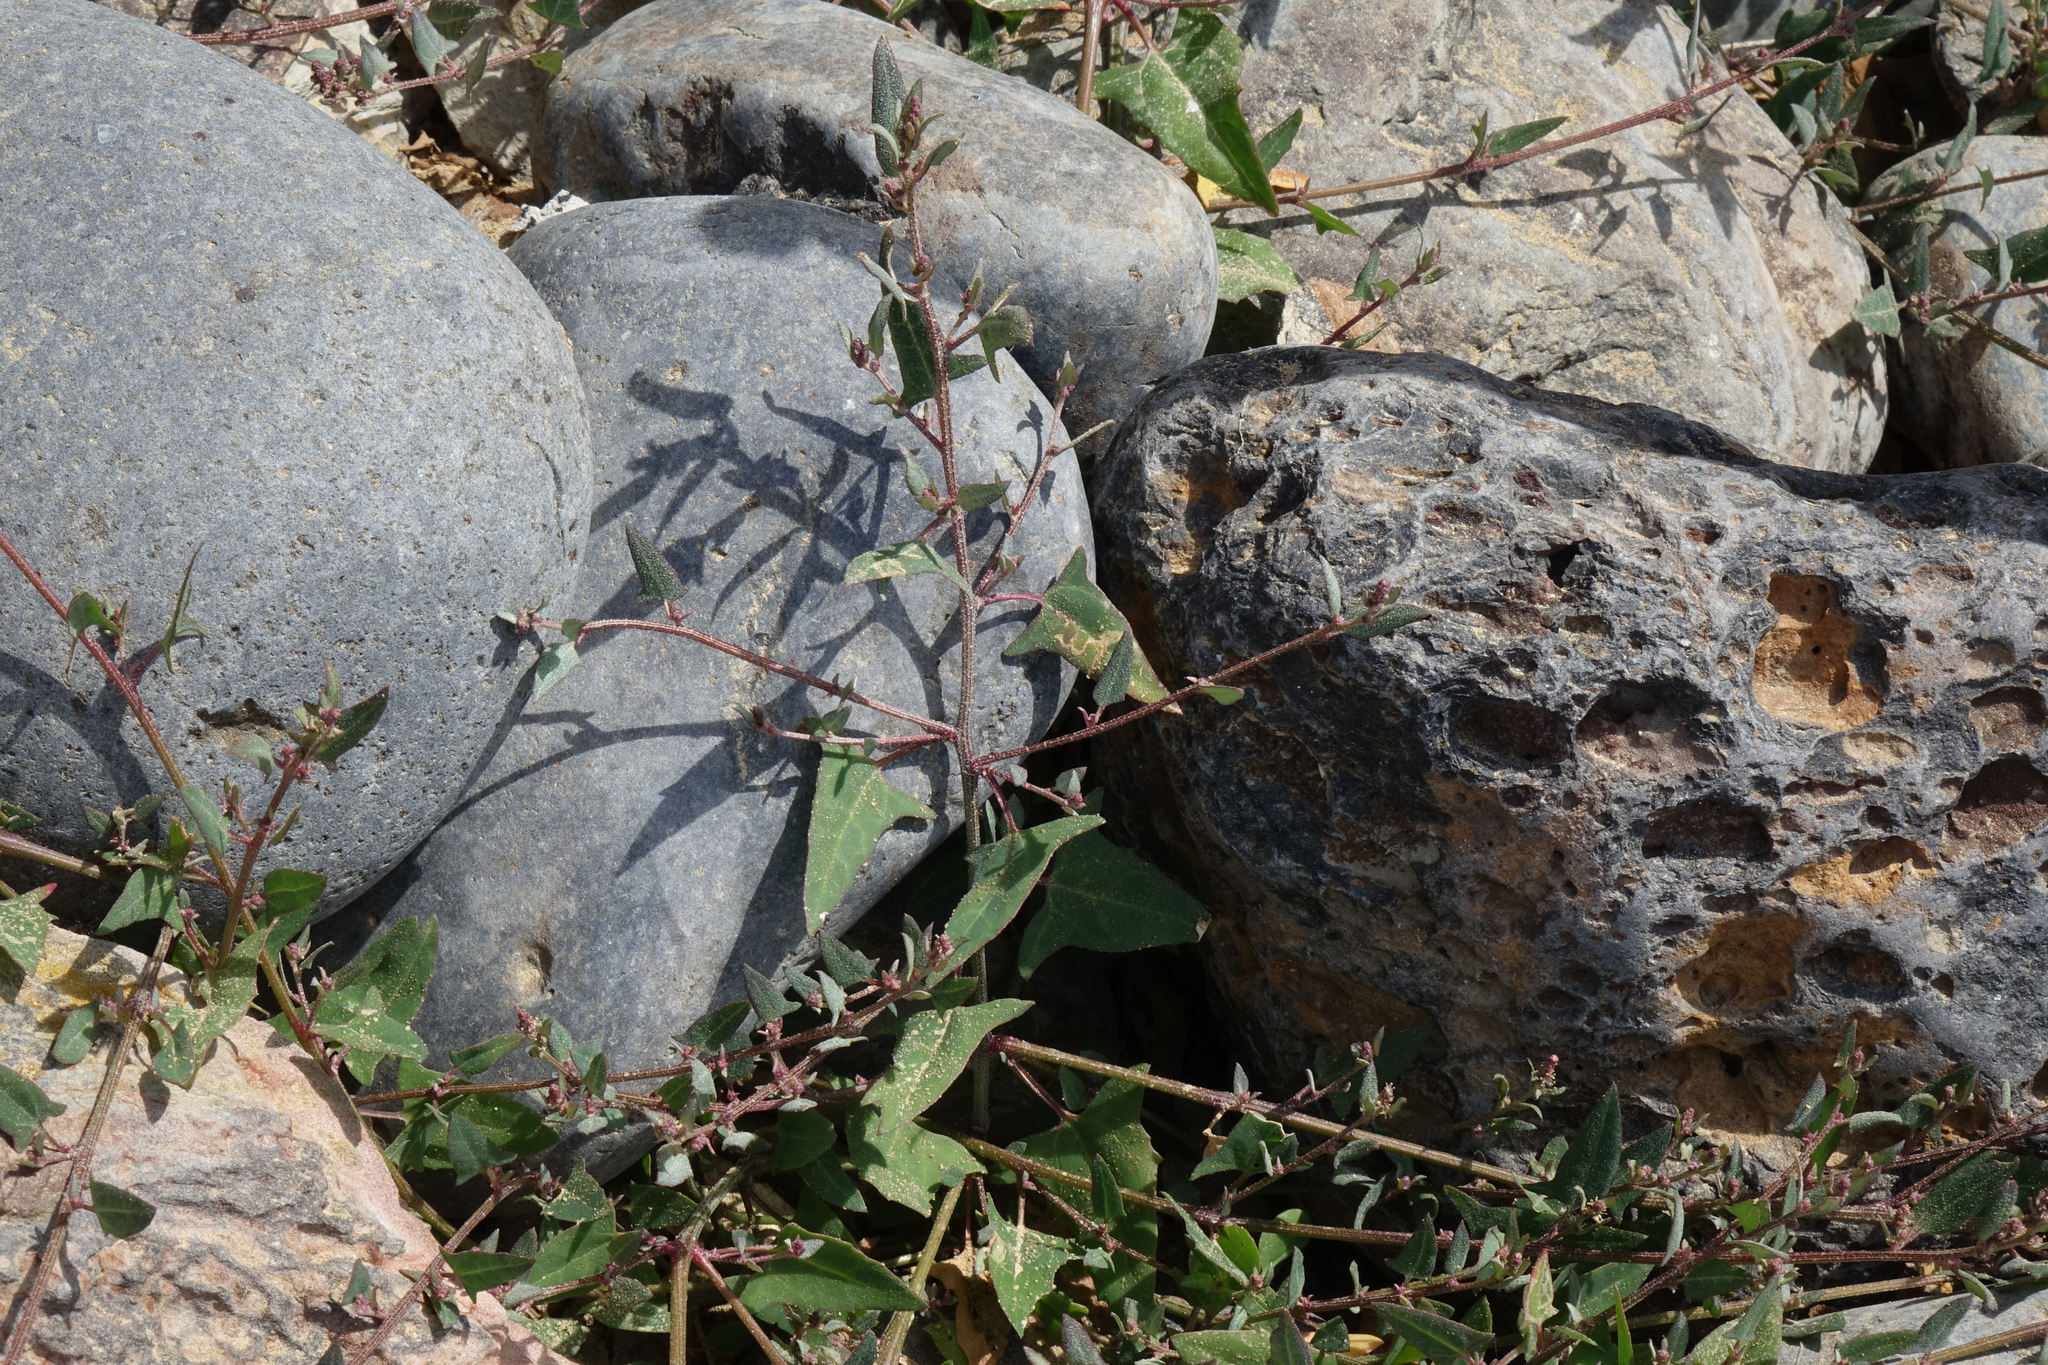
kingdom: Plantae
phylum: Tracheophyta
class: Magnoliopsida
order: Caryophyllales
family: Amaranthaceae
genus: Atriplex
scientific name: Atriplex prostrata
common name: Spear-leaved orache
